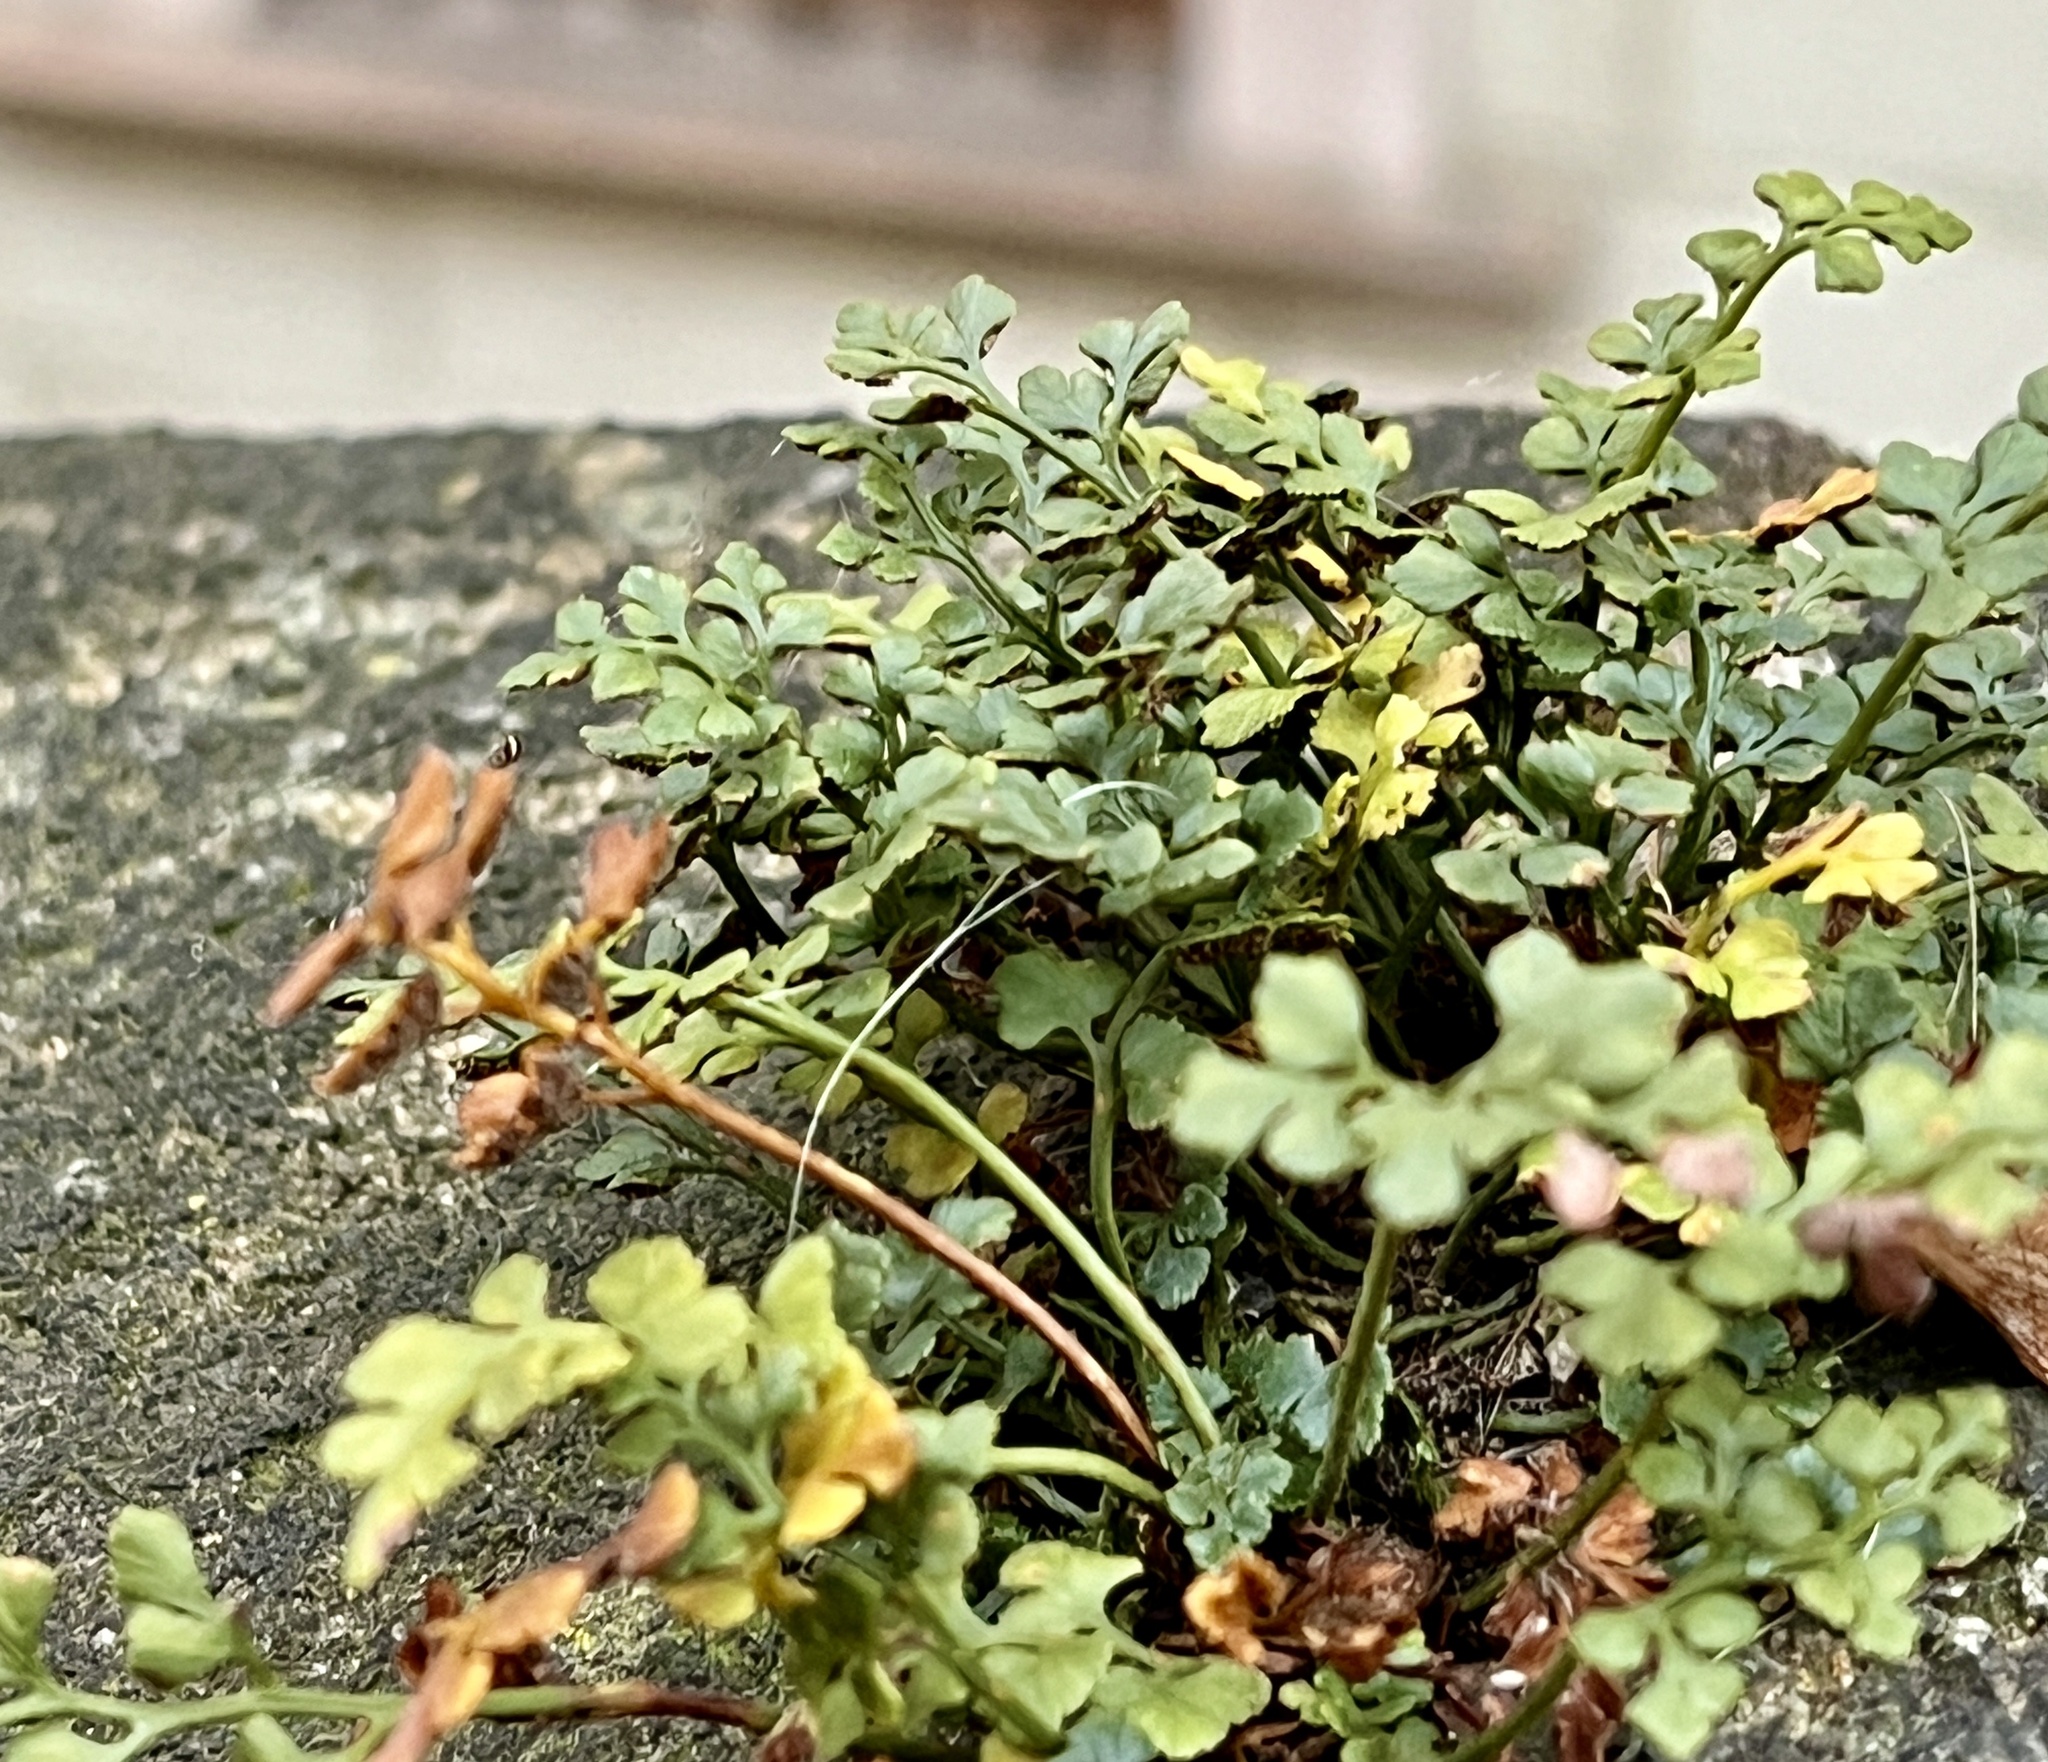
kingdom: Plantae
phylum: Tracheophyta
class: Polypodiopsida
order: Polypodiales
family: Aspleniaceae
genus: Asplenium
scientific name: Asplenium ruta-muraria
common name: Wall-rue
